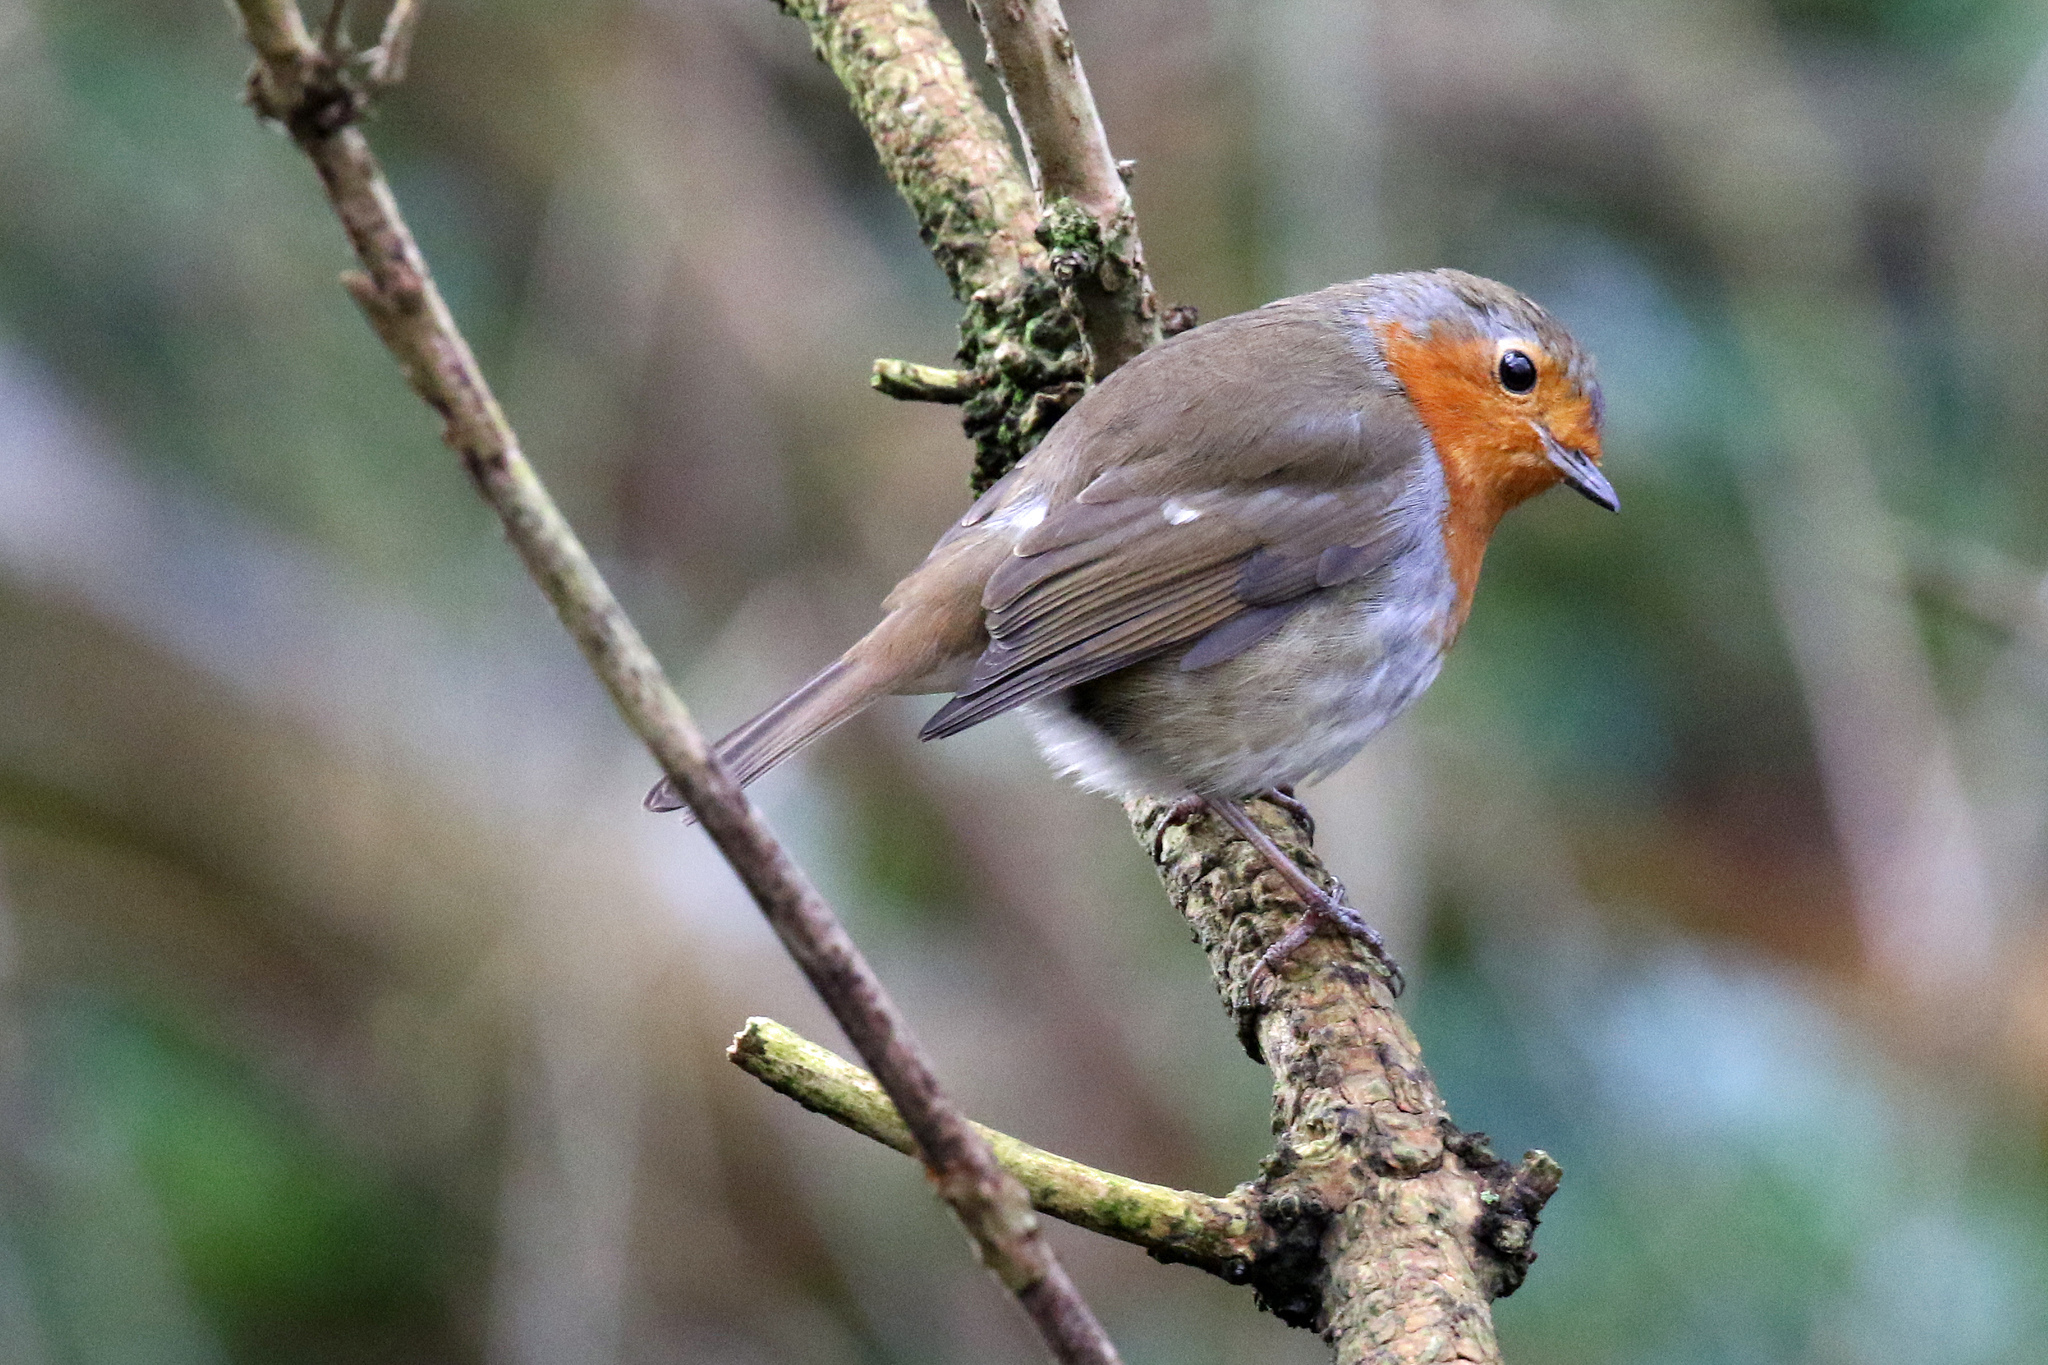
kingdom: Animalia
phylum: Chordata
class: Aves
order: Passeriformes
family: Muscicapidae
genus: Erithacus
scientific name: Erithacus rubecula
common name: European robin
